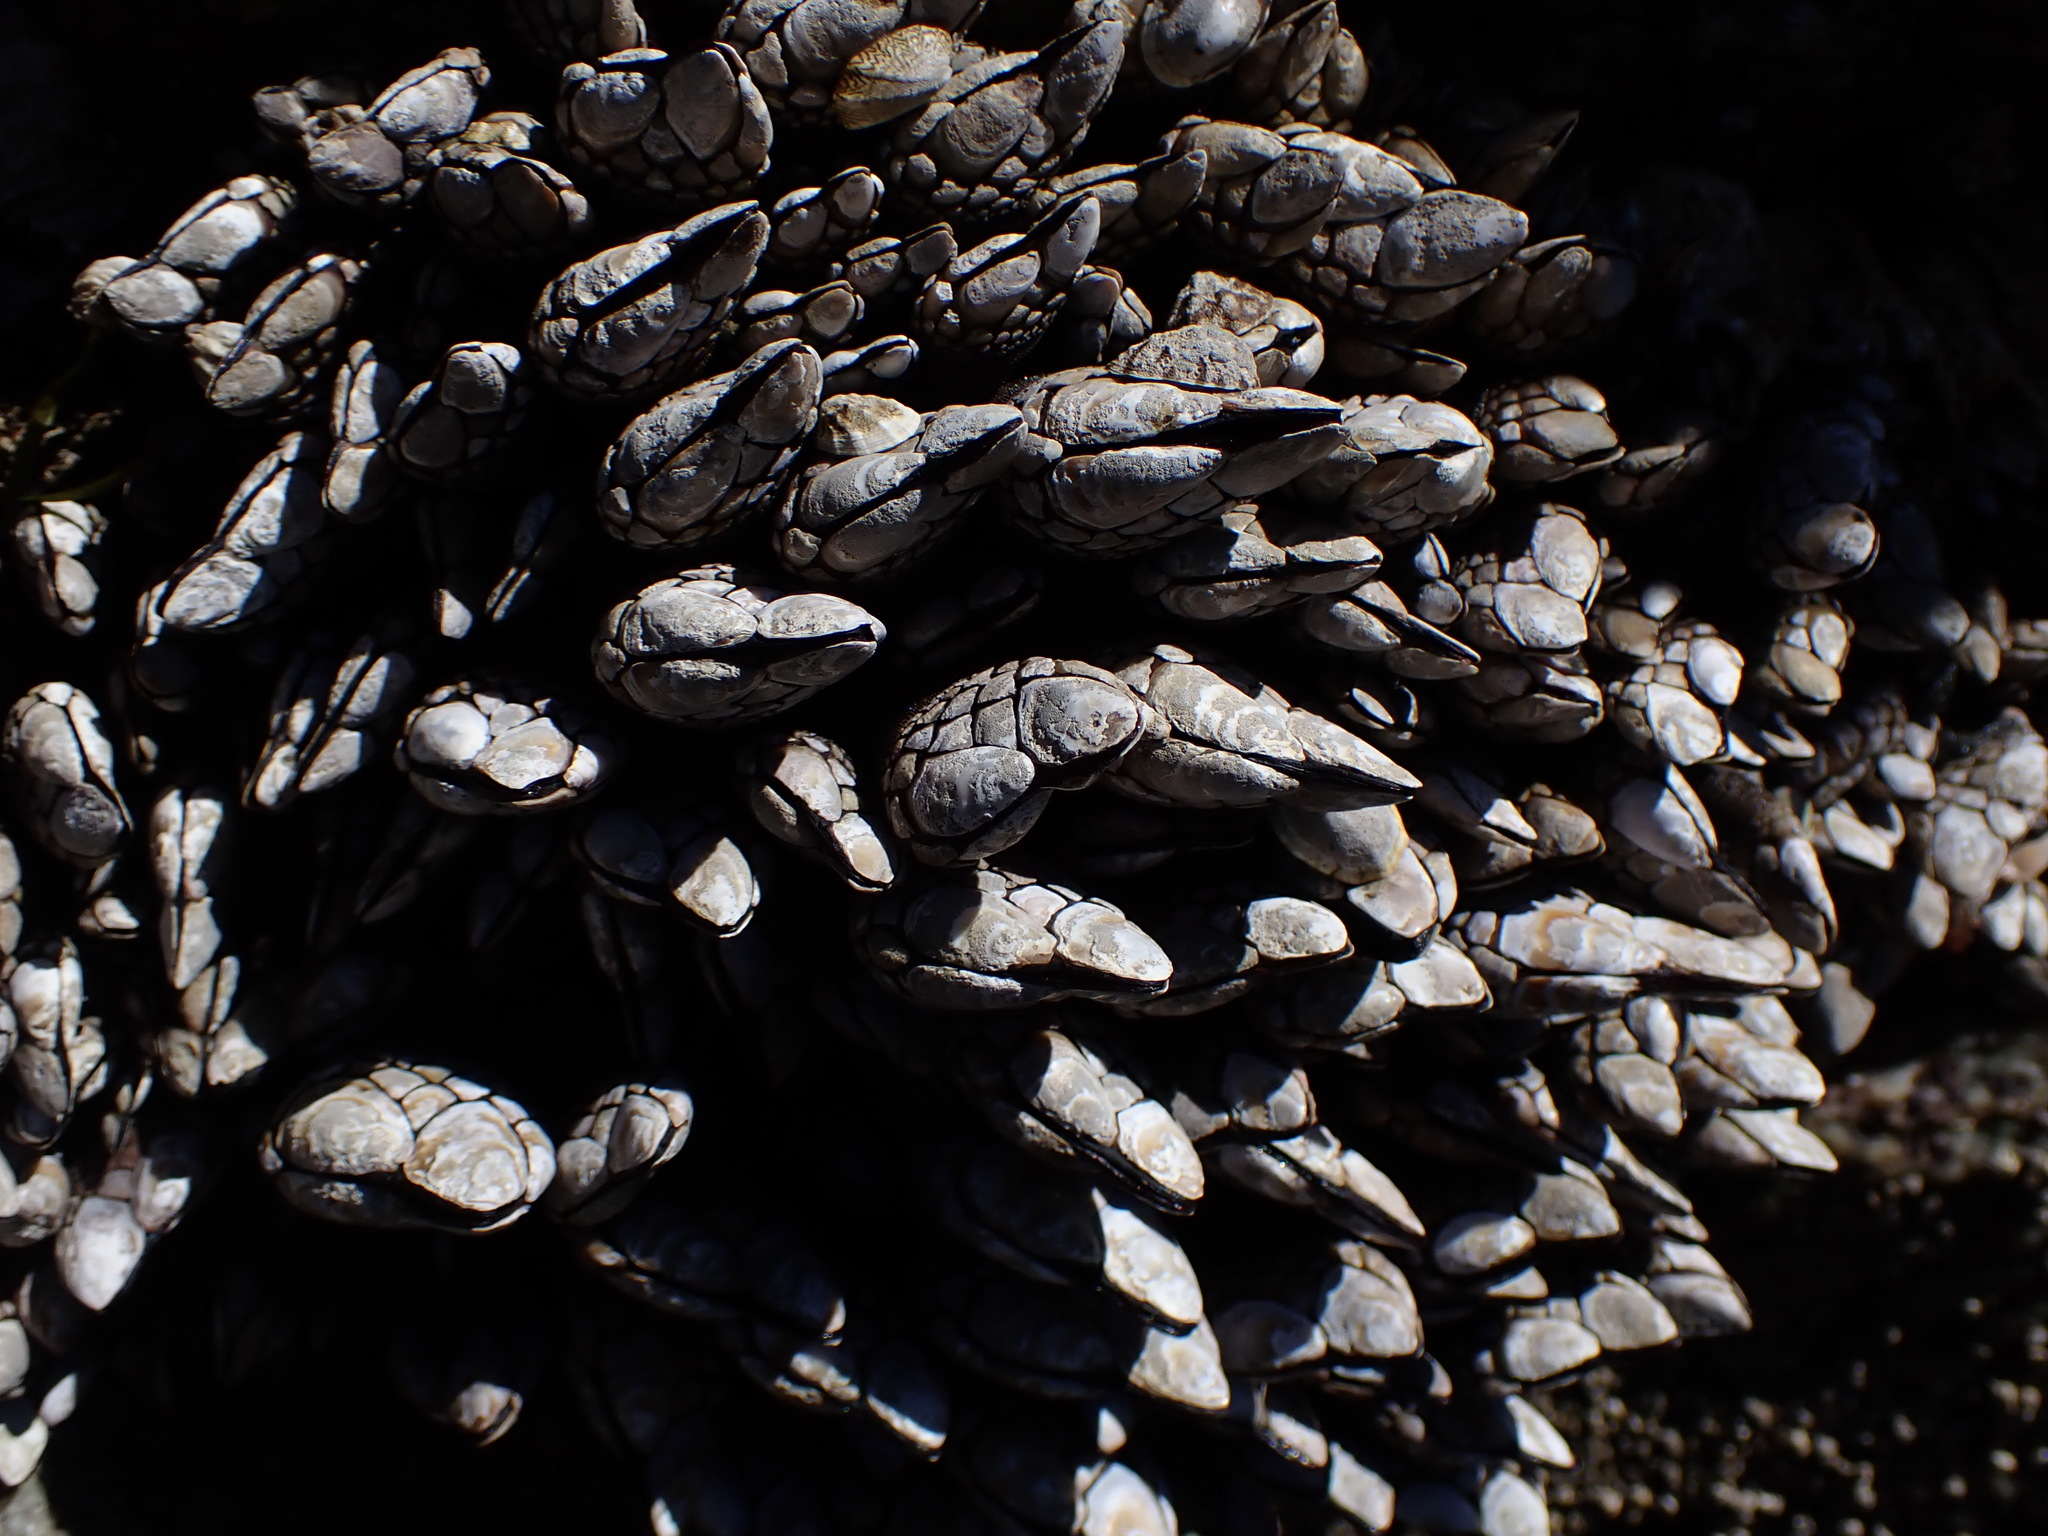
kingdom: Animalia
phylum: Arthropoda
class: Maxillopoda
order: Pedunculata
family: Pollicipedidae
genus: Pollicipes
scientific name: Pollicipes polymerus
